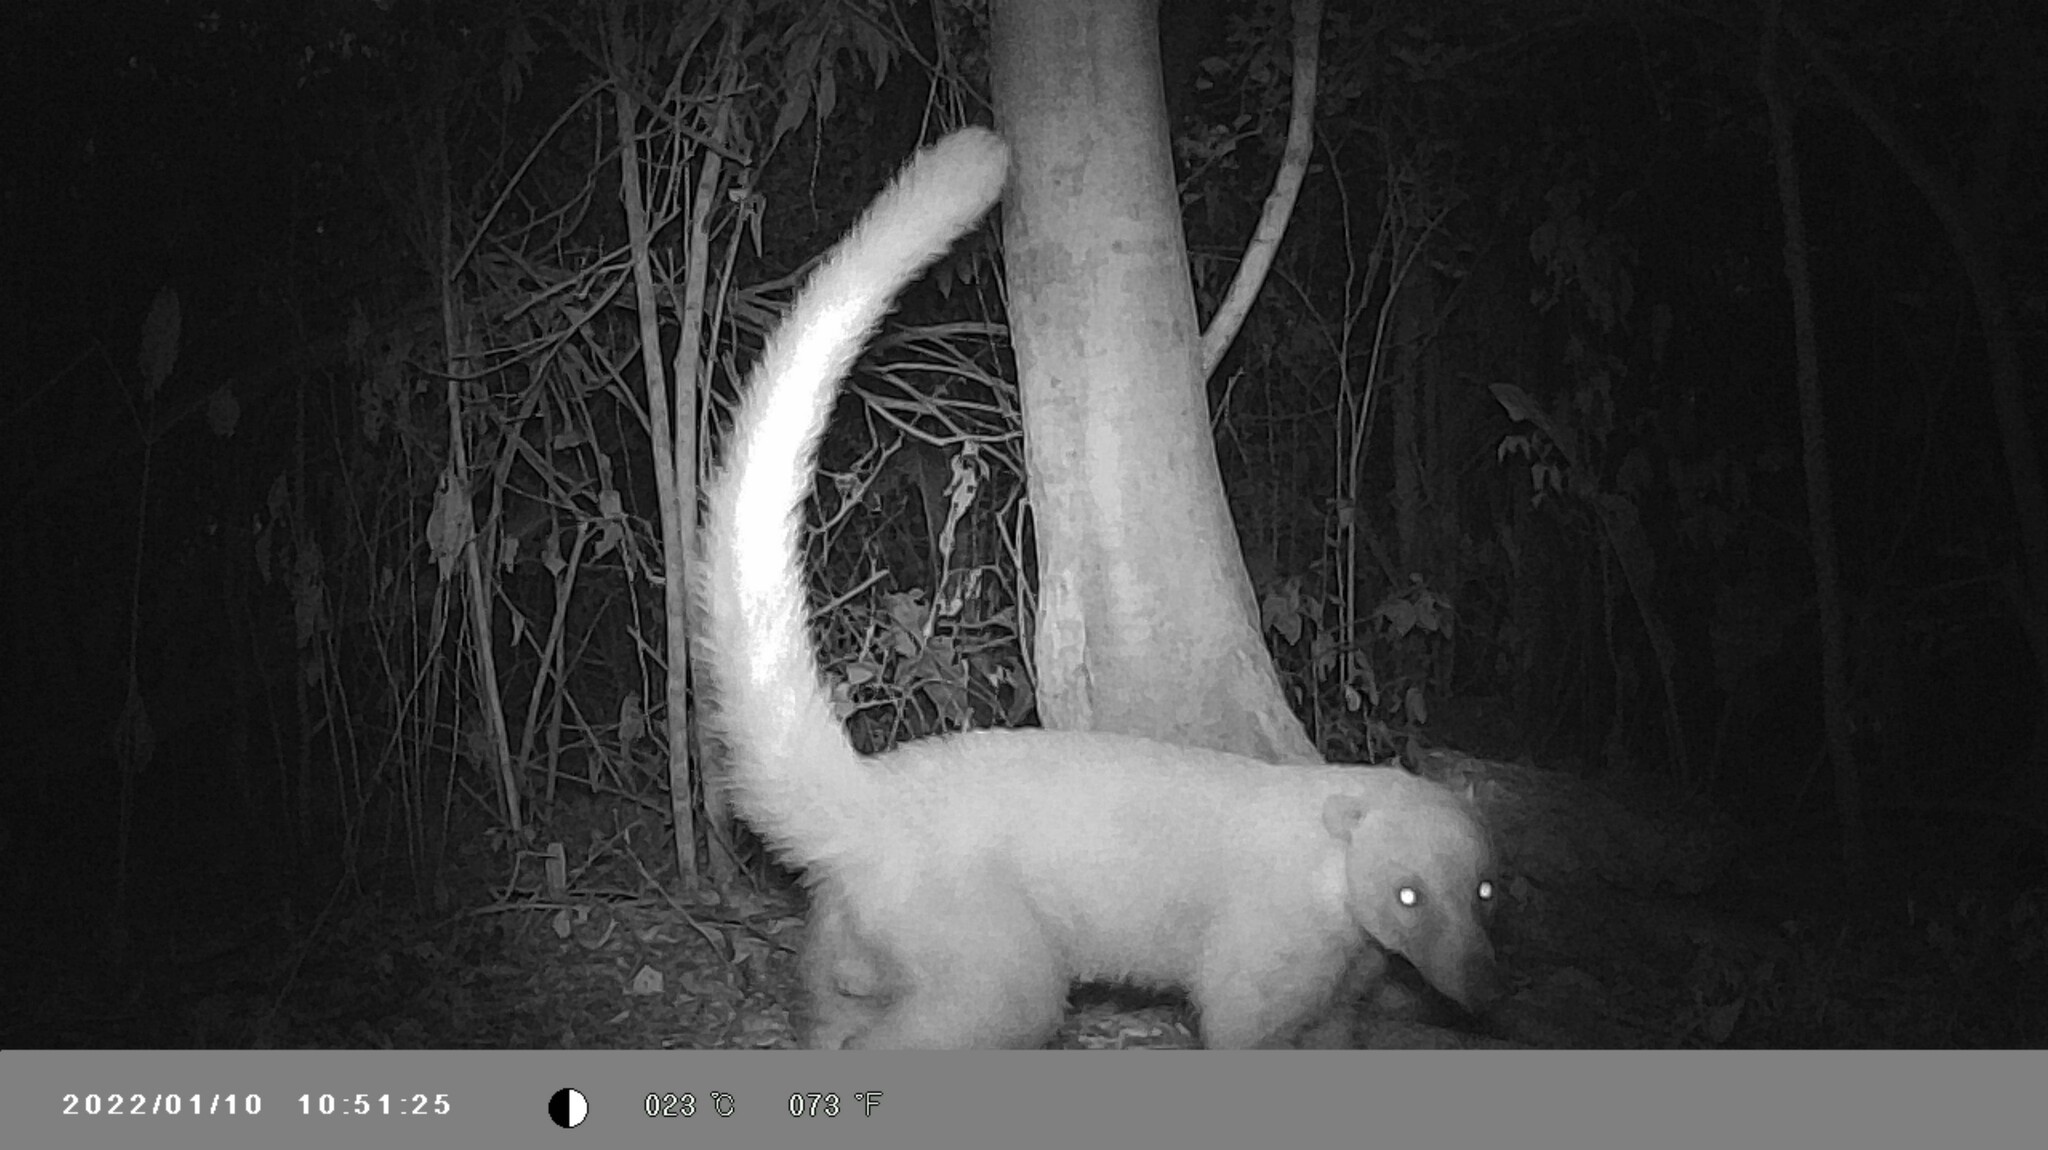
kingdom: Animalia
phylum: Chordata
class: Mammalia
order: Carnivora
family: Procyonidae
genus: Nasua
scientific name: Nasua narica
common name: White-nosed coati
